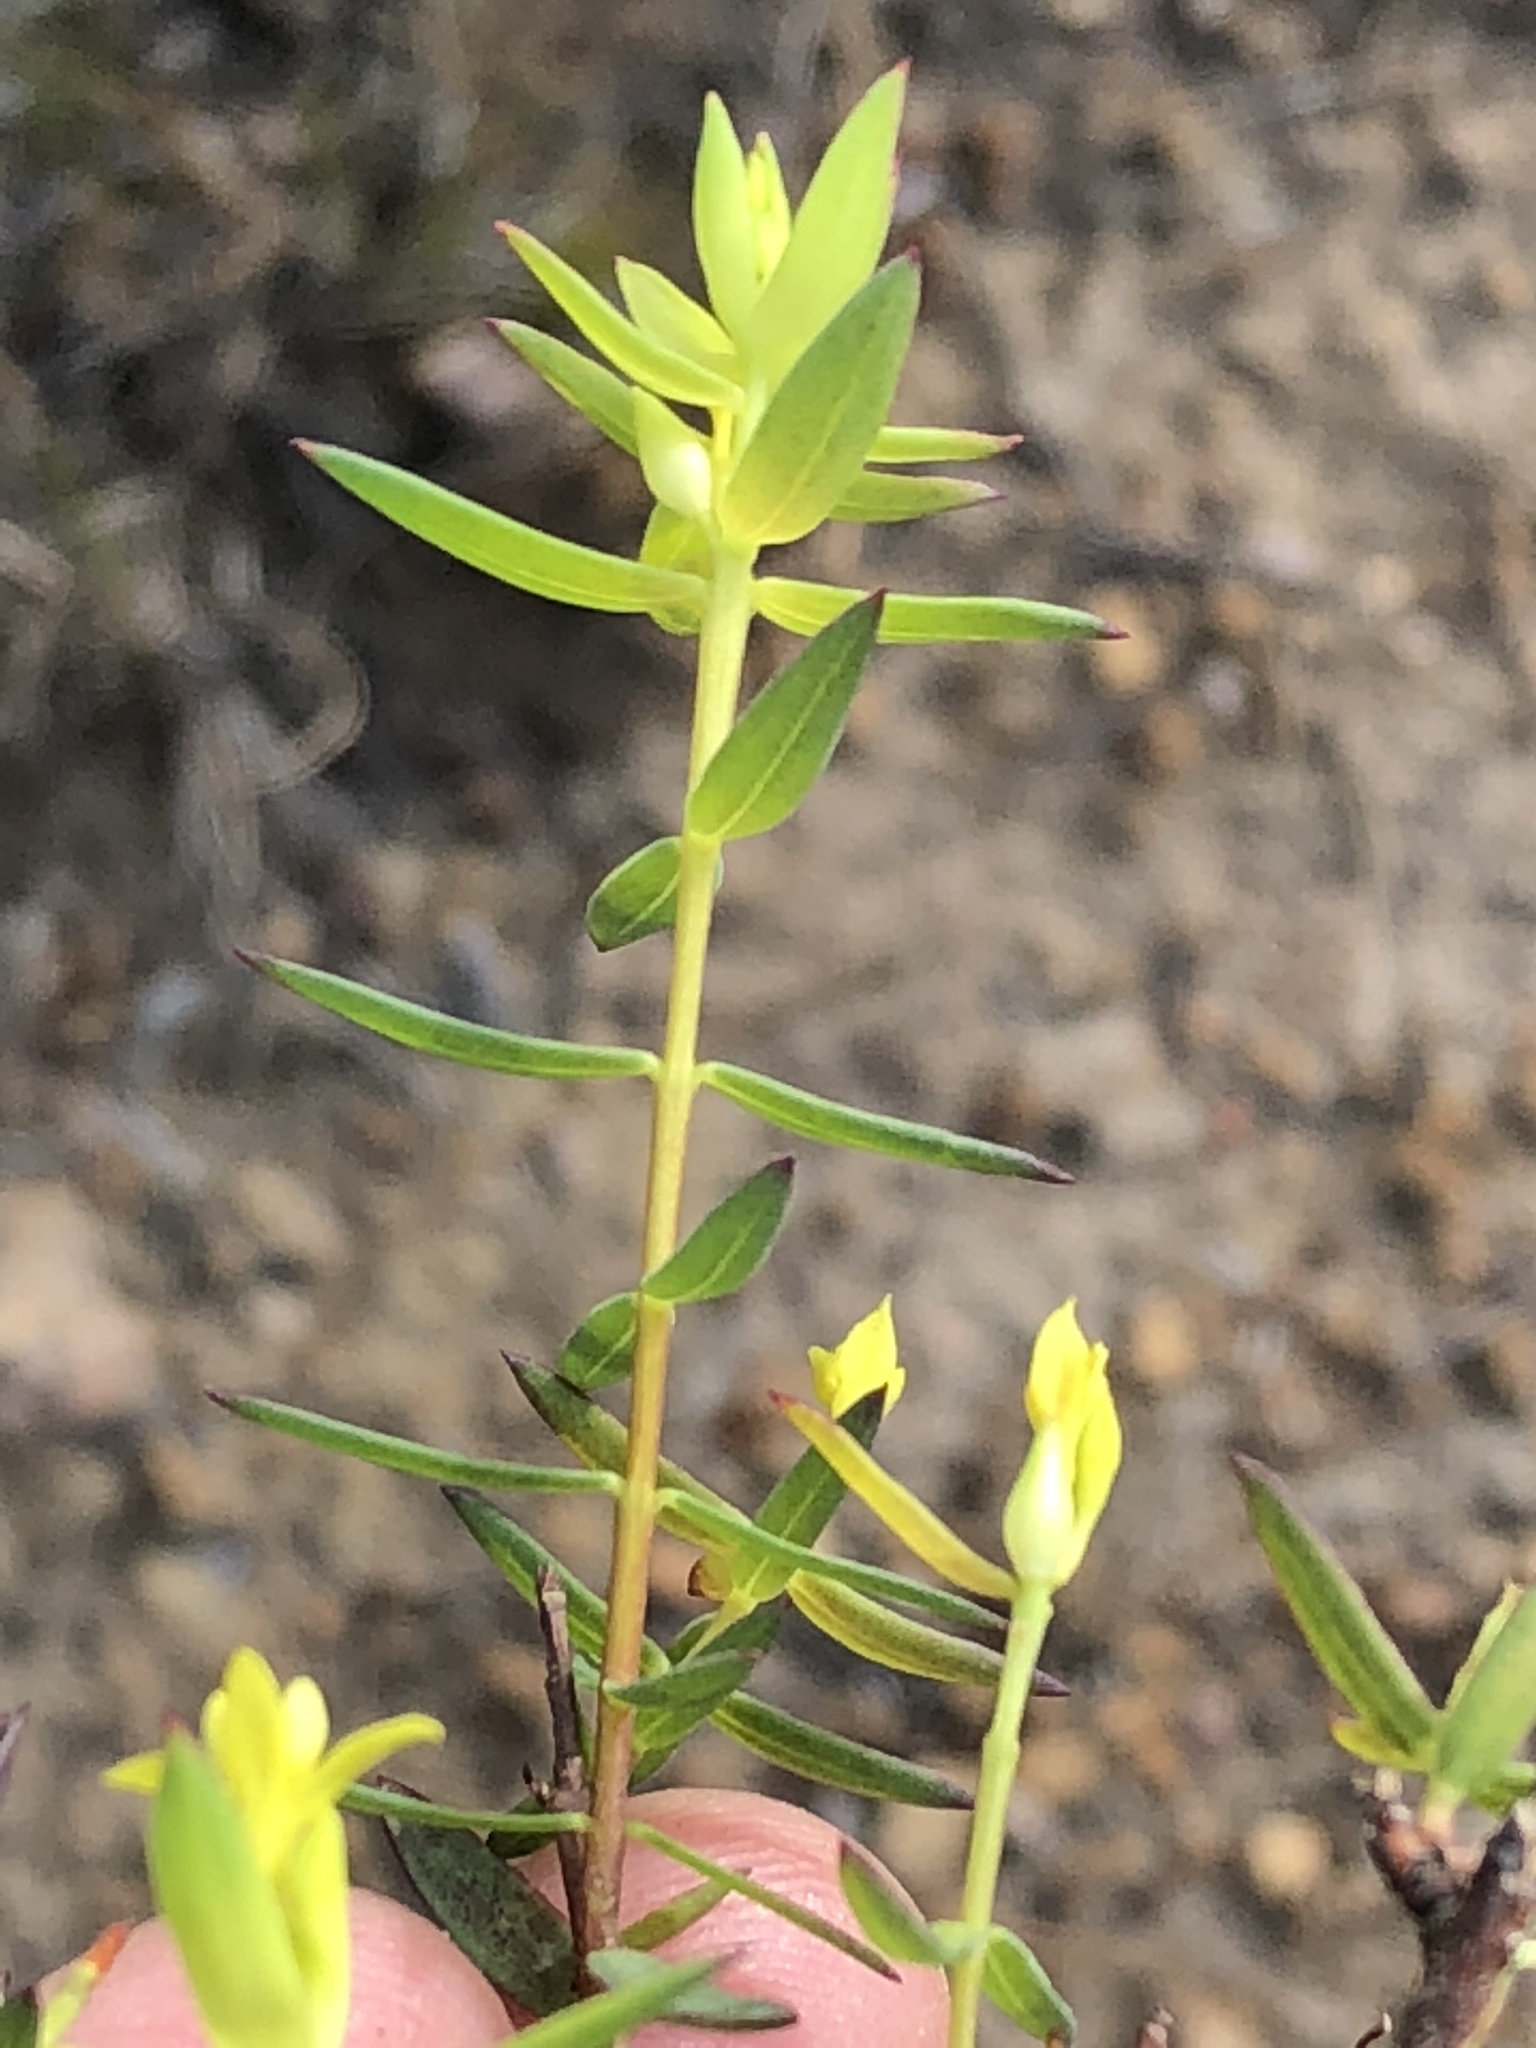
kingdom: Plantae
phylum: Tracheophyta
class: Magnoliopsida
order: Malvales
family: Thymelaeaceae
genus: Gnidia
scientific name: Gnidia juniperifolia
